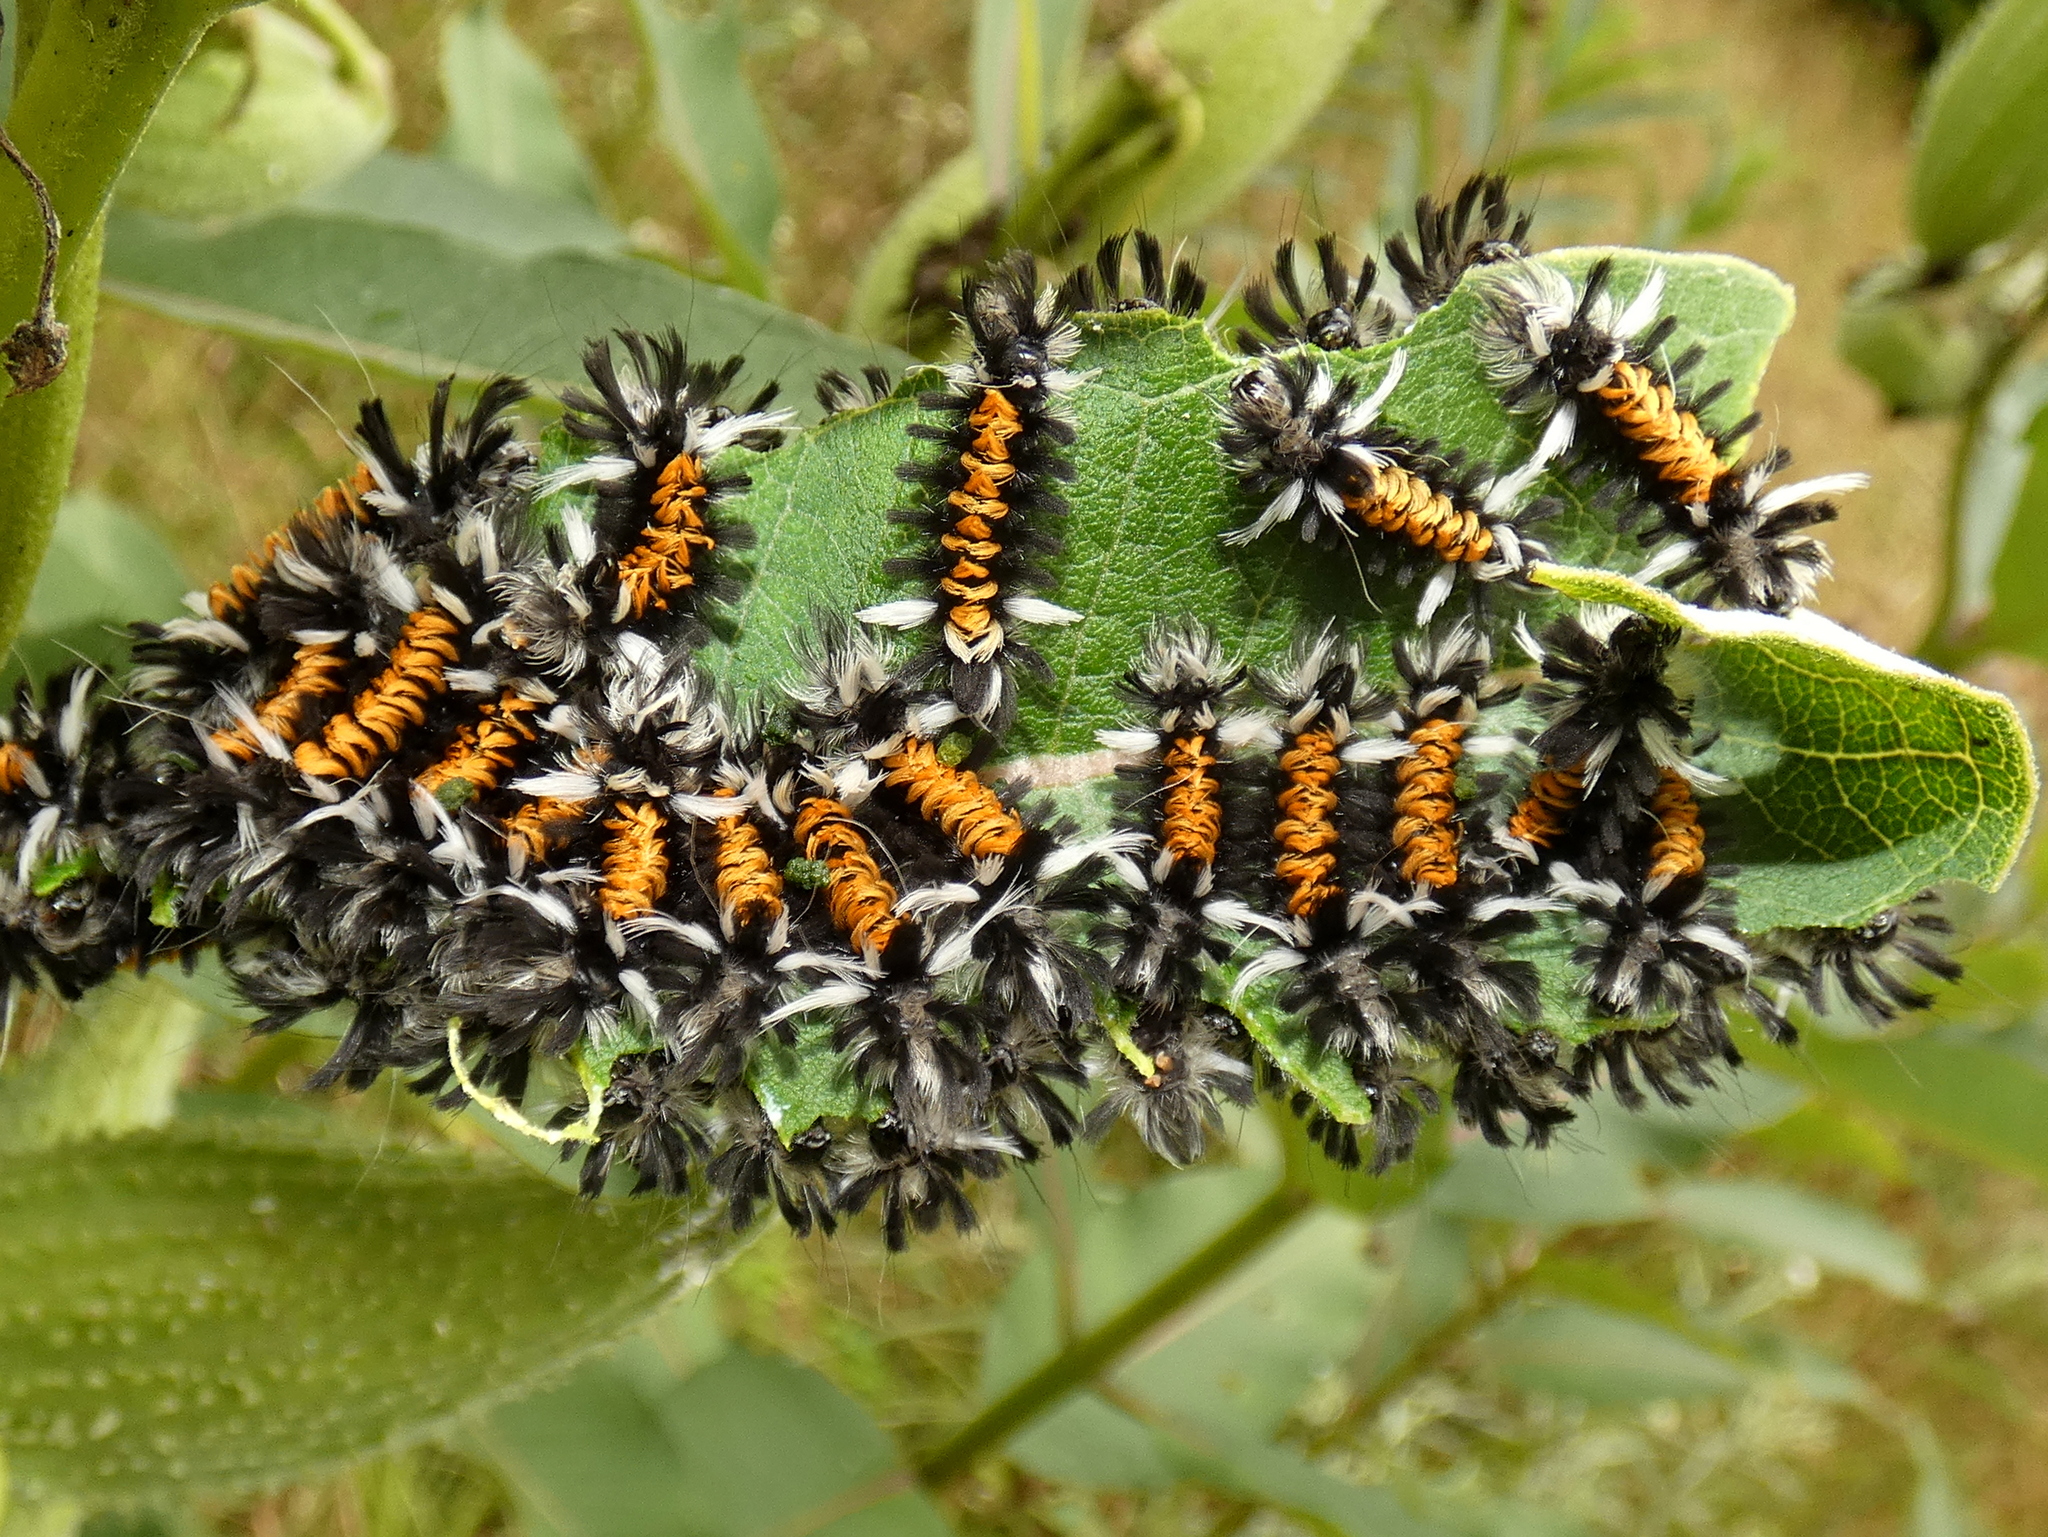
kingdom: Animalia
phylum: Arthropoda
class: Insecta
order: Lepidoptera
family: Erebidae
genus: Euchaetes
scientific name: Euchaetes egle
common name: Milkweed tussock moth
